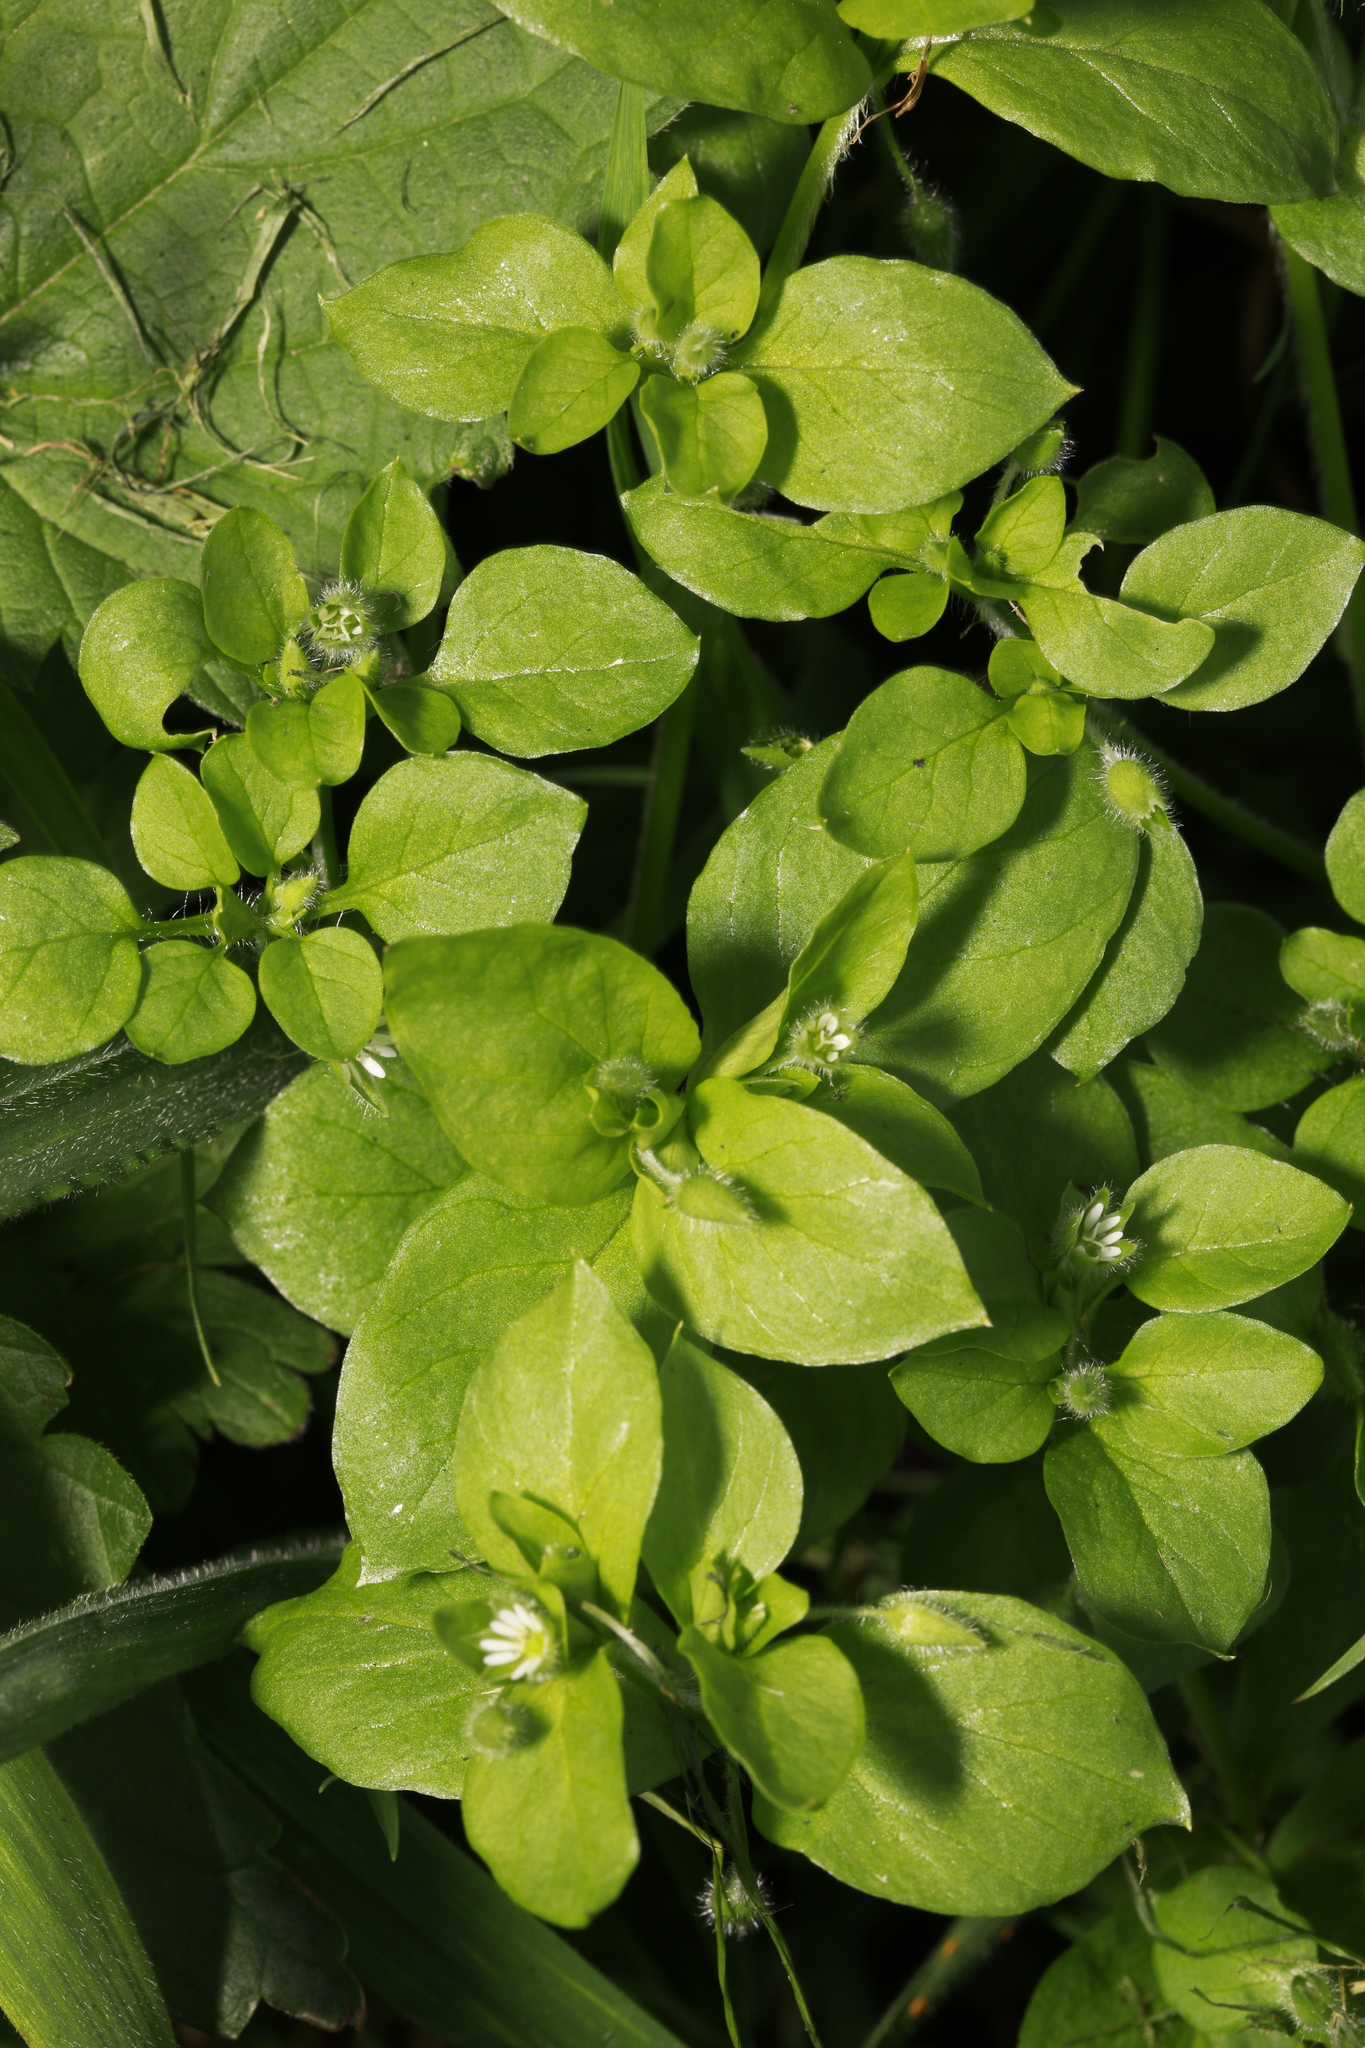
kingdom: Plantae
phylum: Tracheophyta
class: Magnoliopsida
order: Caryophyllales
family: Caryophyllaceae
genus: Stellaria
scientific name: Stellaria media
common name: Common chickweed
